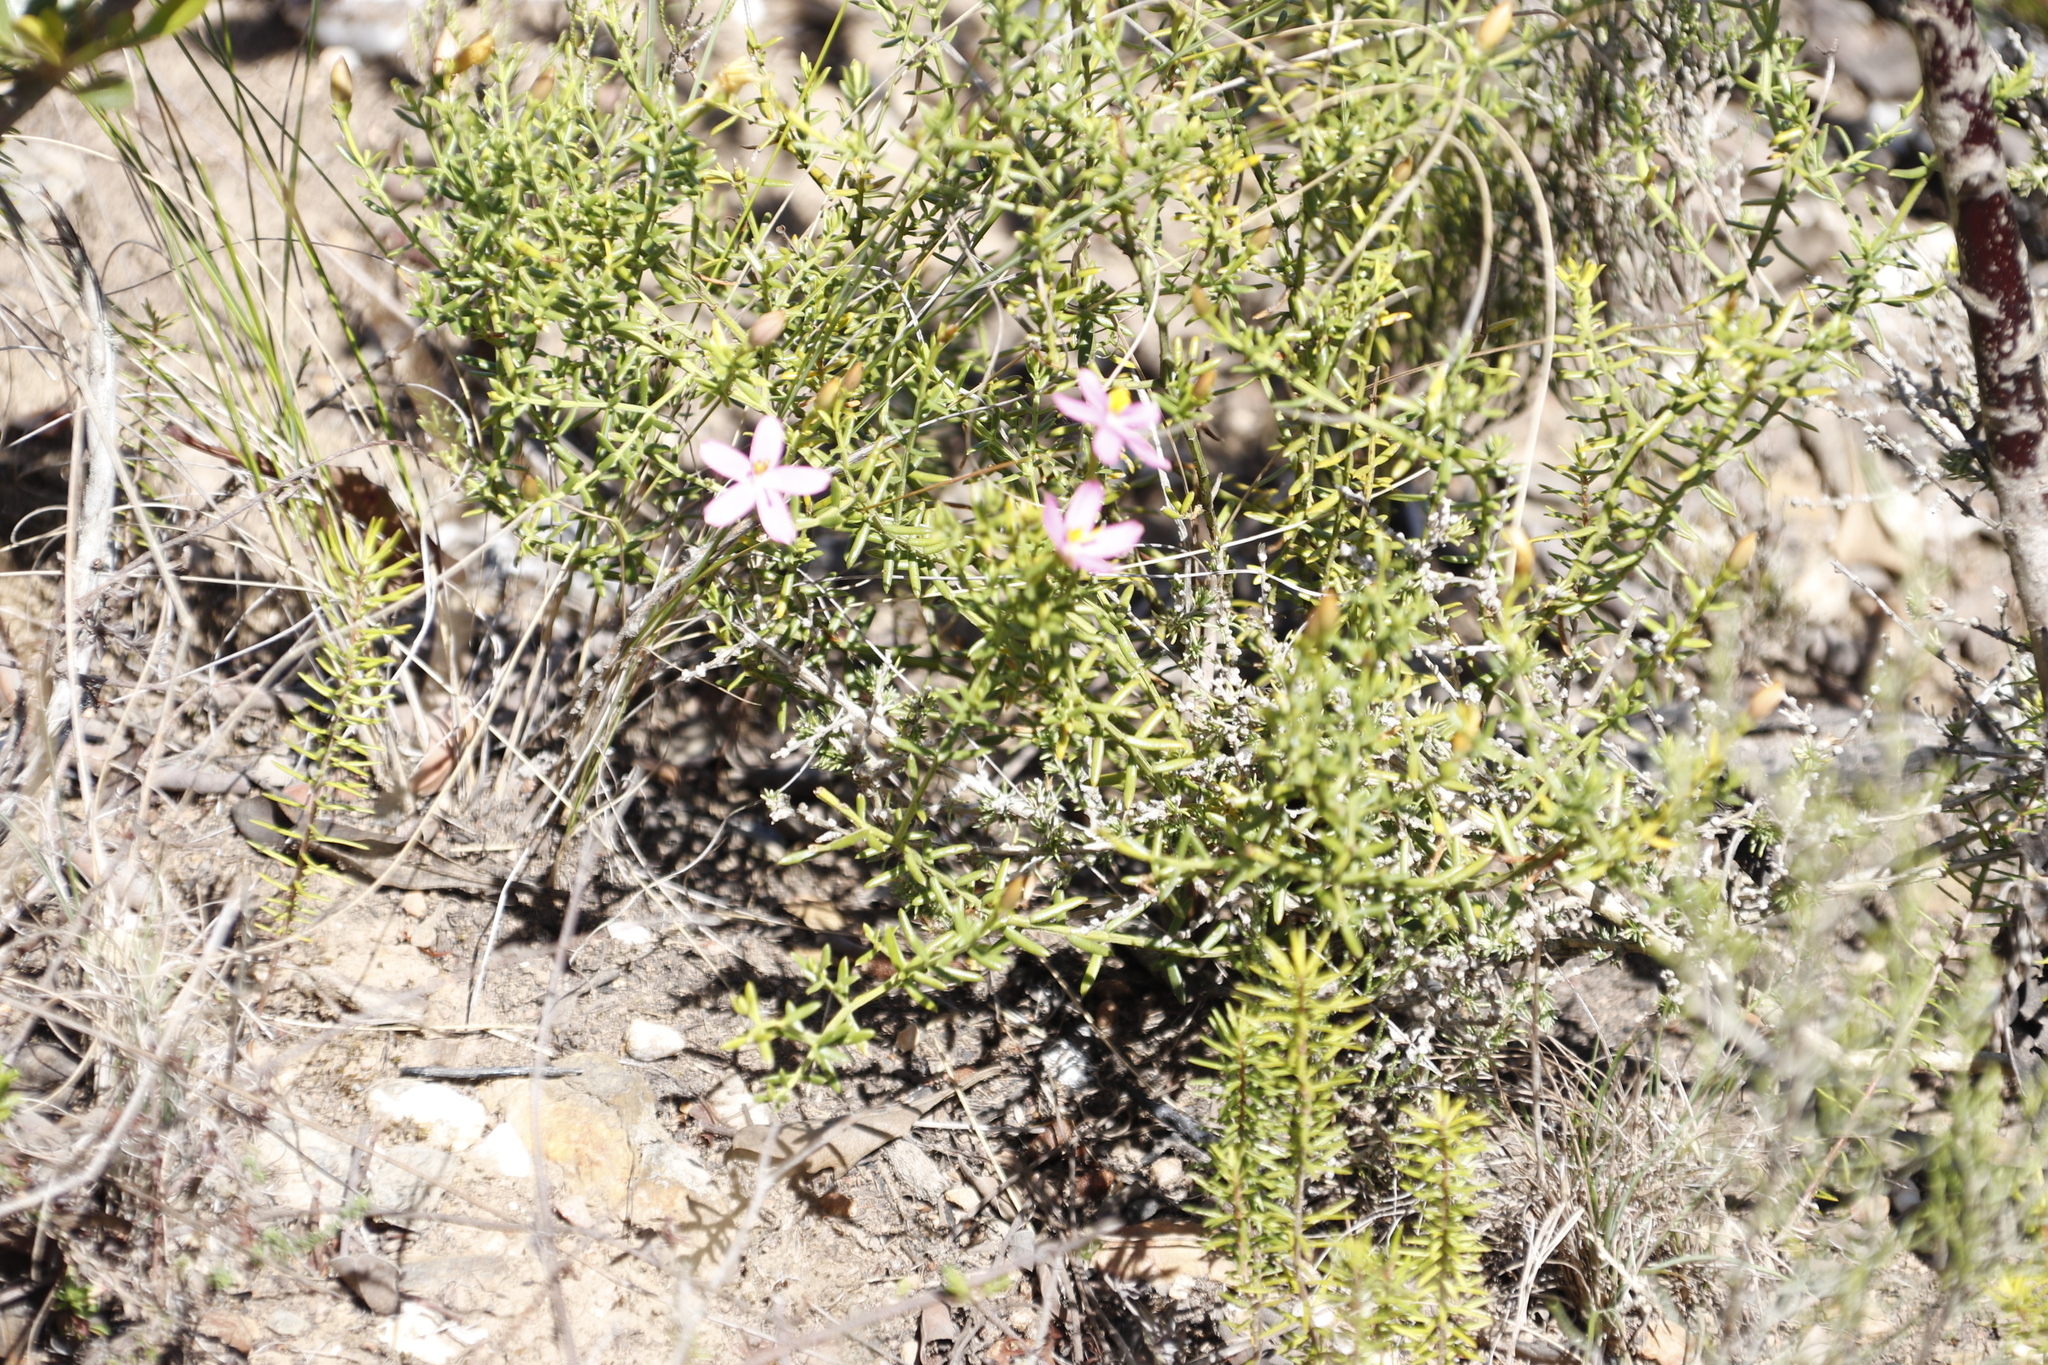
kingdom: Plantae
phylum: Tracheophyta
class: Magnoliopsida
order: Gentianales
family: Gentianaceae
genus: Chironia
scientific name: Chironia baccifera
